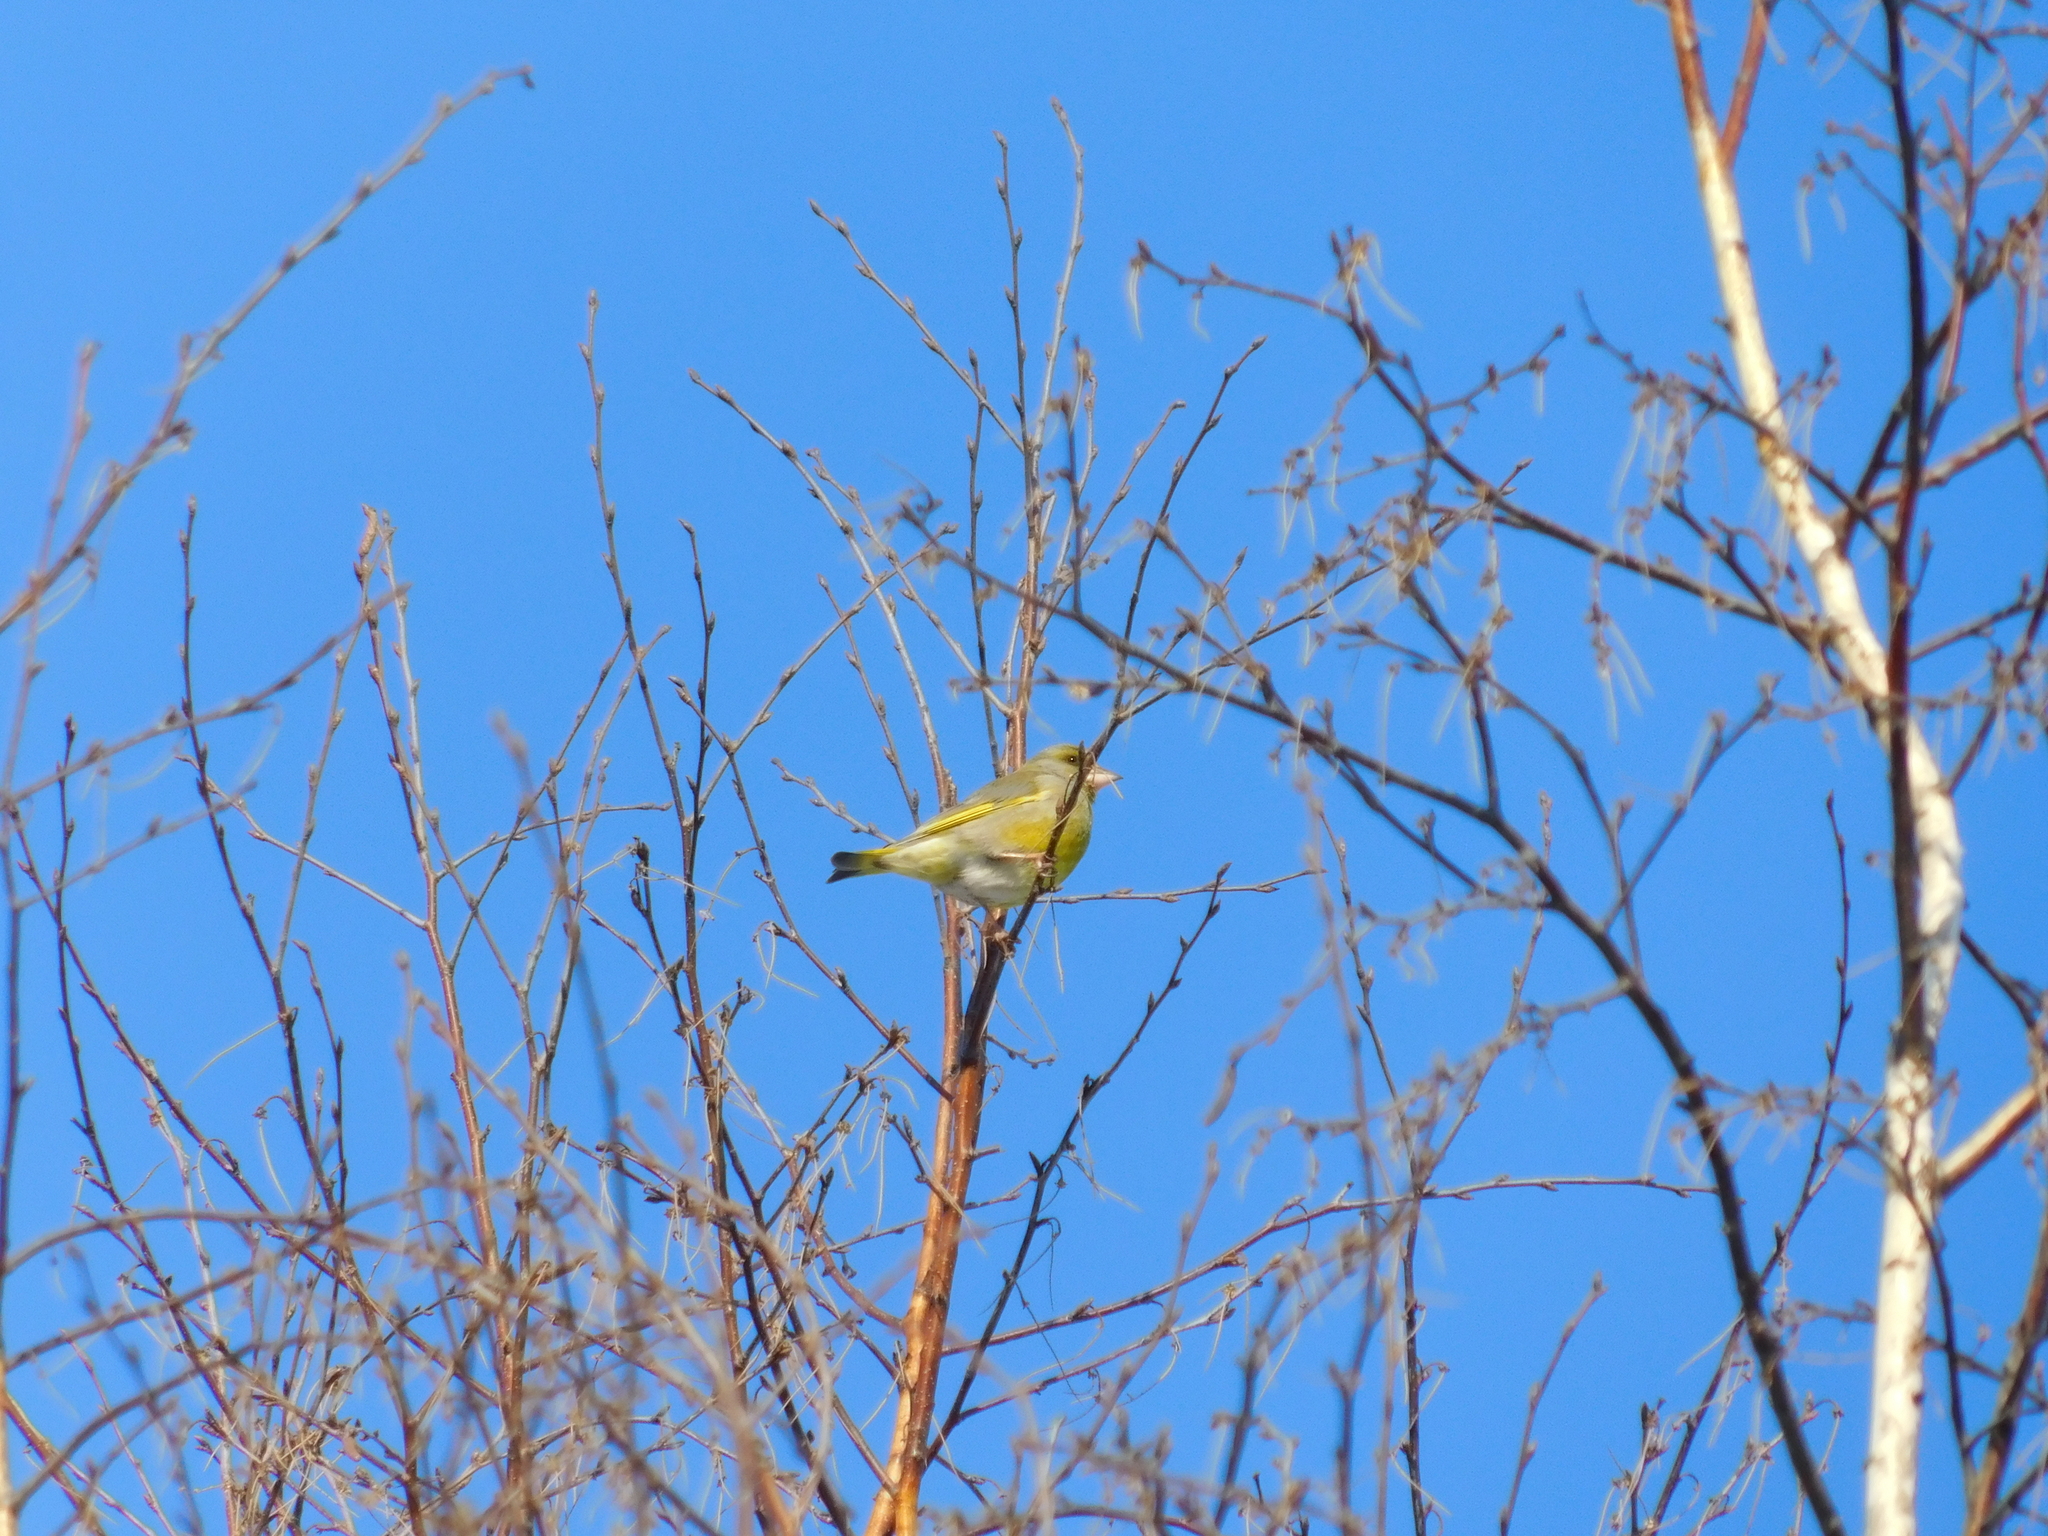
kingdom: Plantae
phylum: Tracheophyta
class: Liliopsida
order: Poales
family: Poaceae
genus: Chloris
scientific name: Chloris chloris
